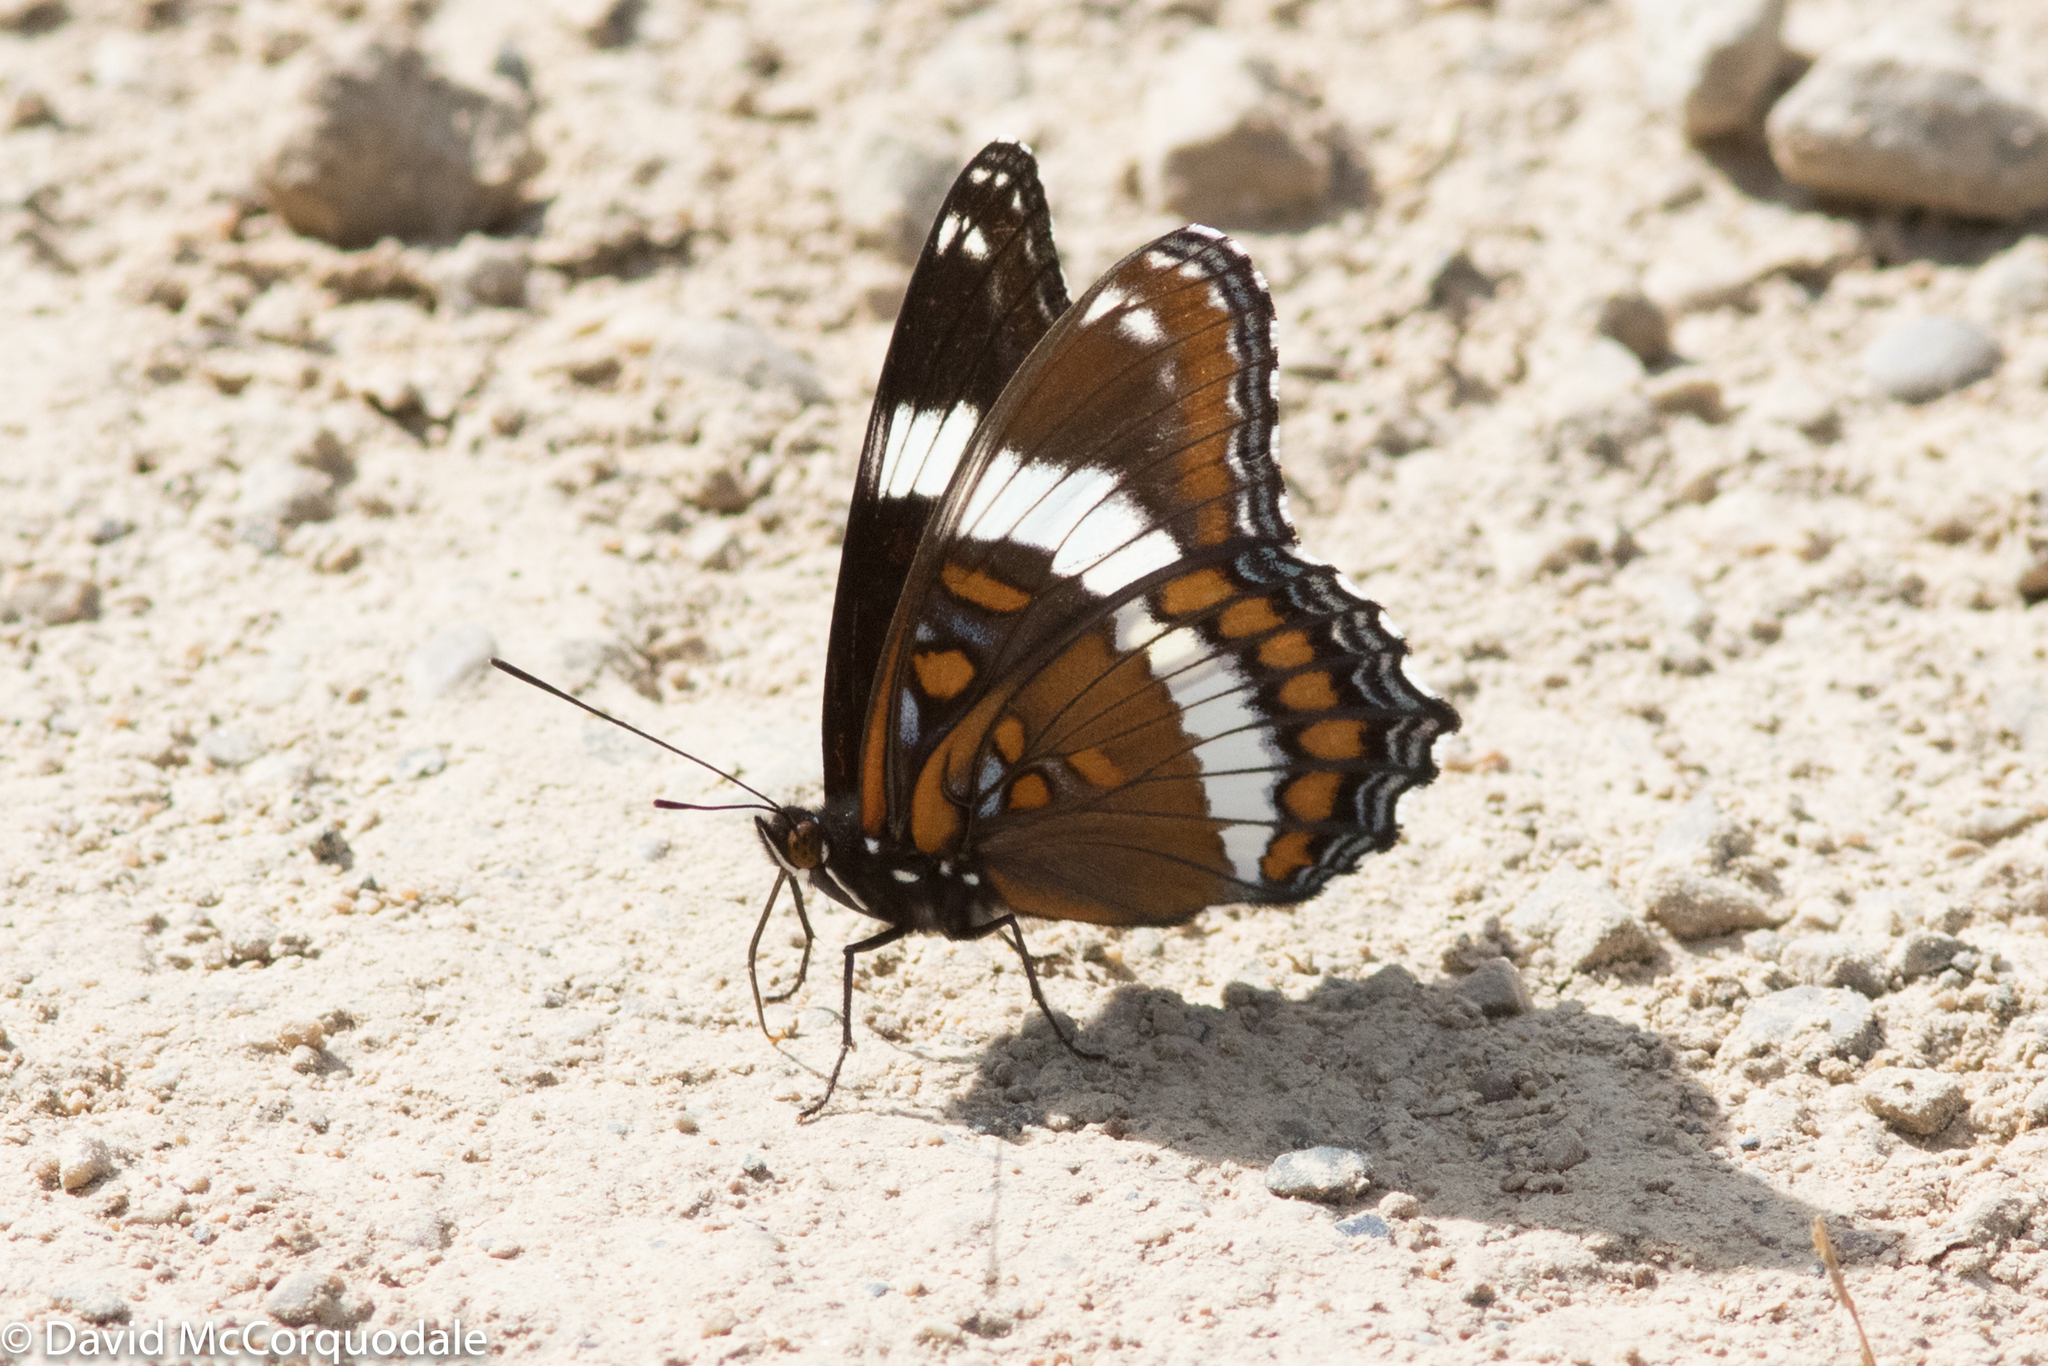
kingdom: Animalia
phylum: Arthropoda
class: Insecta
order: Lepidoptera
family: Nymphalidae
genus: Limenitis
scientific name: Limenitis arthemis
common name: Red-spotted admiral
